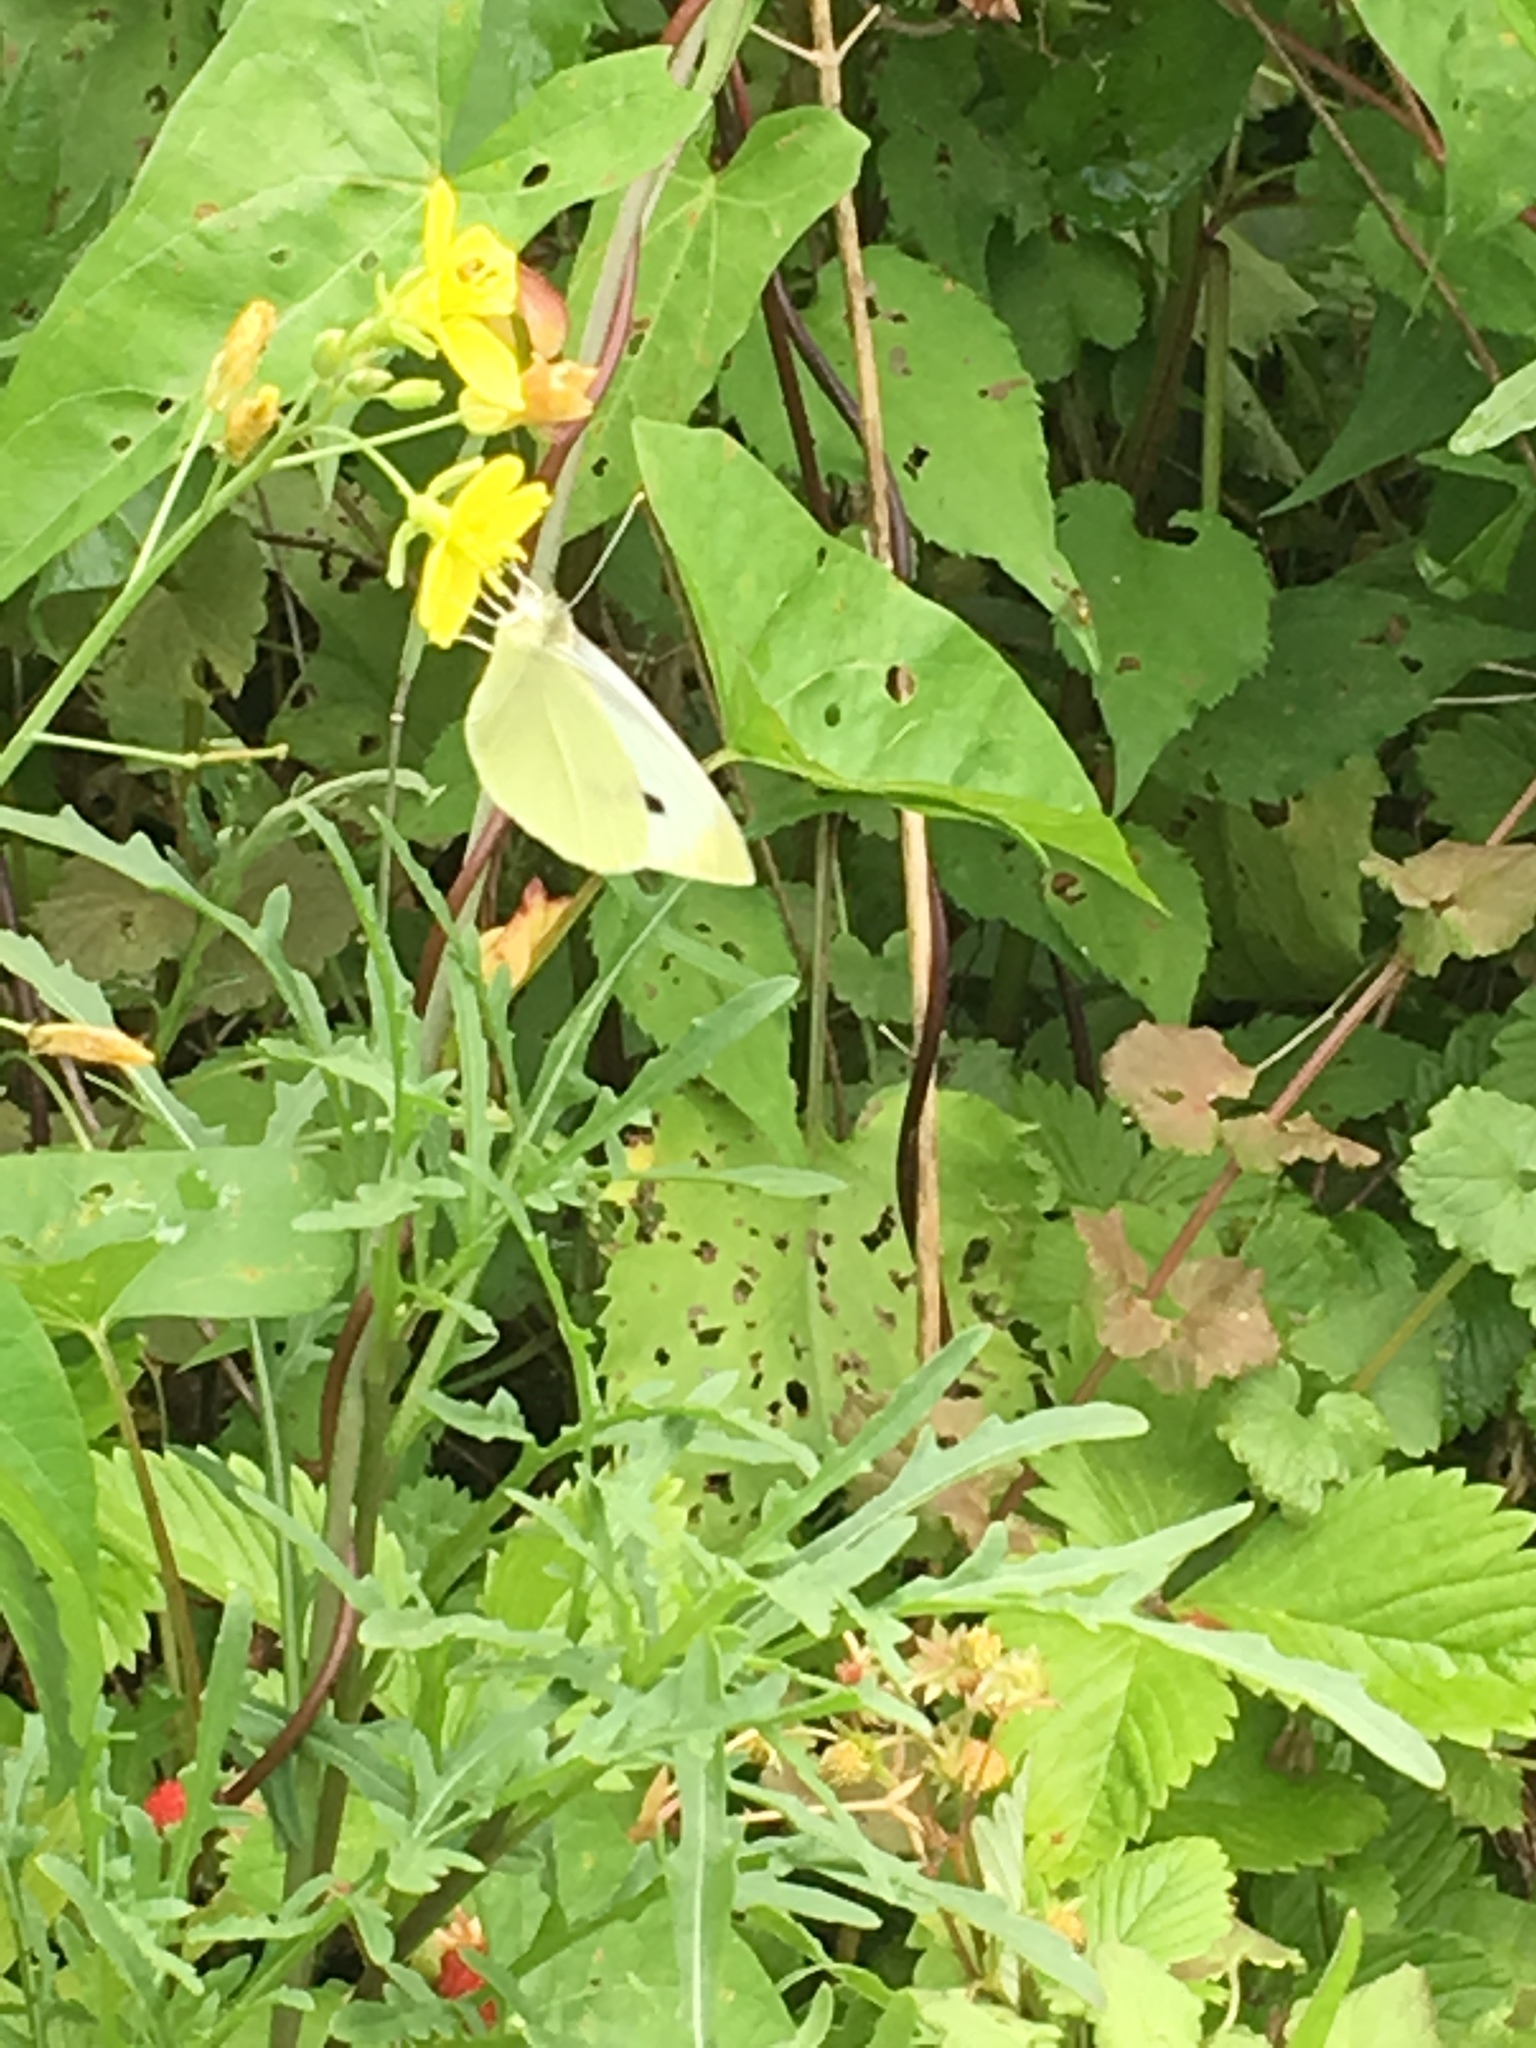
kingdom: Animalia
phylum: Arthropoda
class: Insecta
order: Lepidoptera
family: Pieridae
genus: Pieris
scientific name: Pieris rapae
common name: Small white
